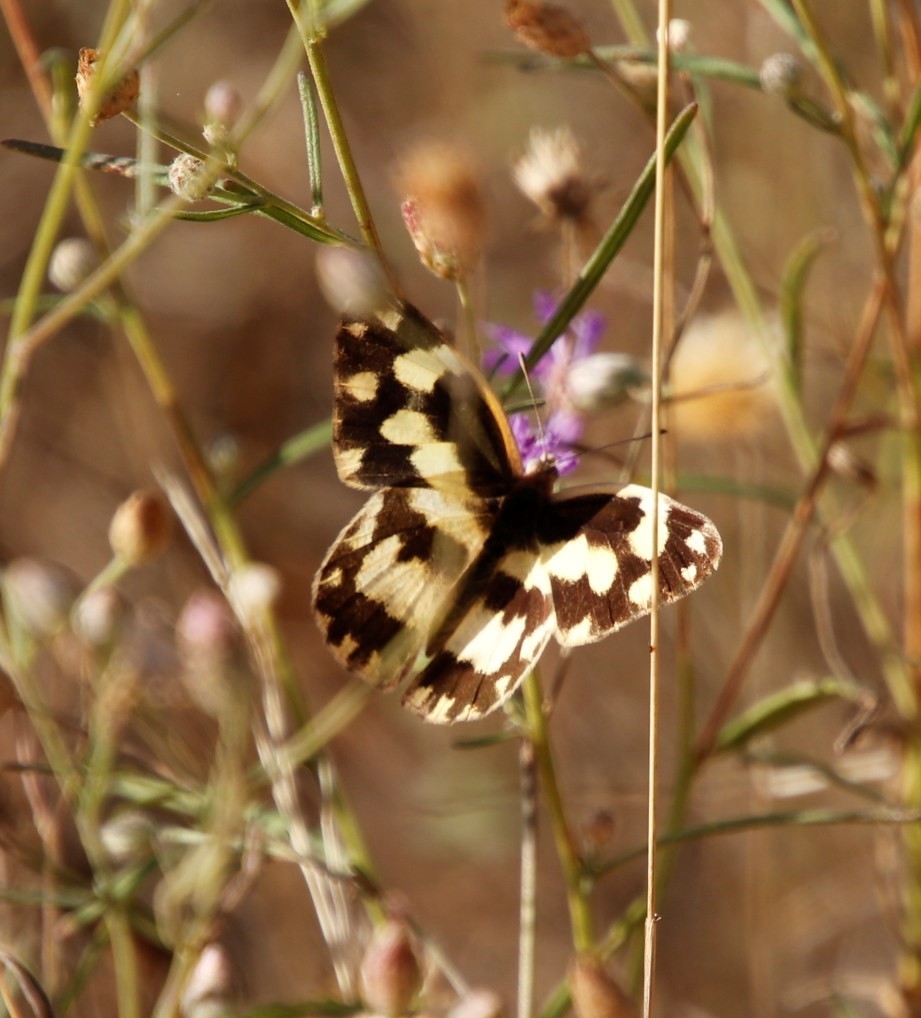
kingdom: Plantae
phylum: Tracheophyta
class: Magnoliopsida
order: Asterales
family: Asteraceae
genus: Crystallopollen
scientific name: Crystallopollen angustifolium
